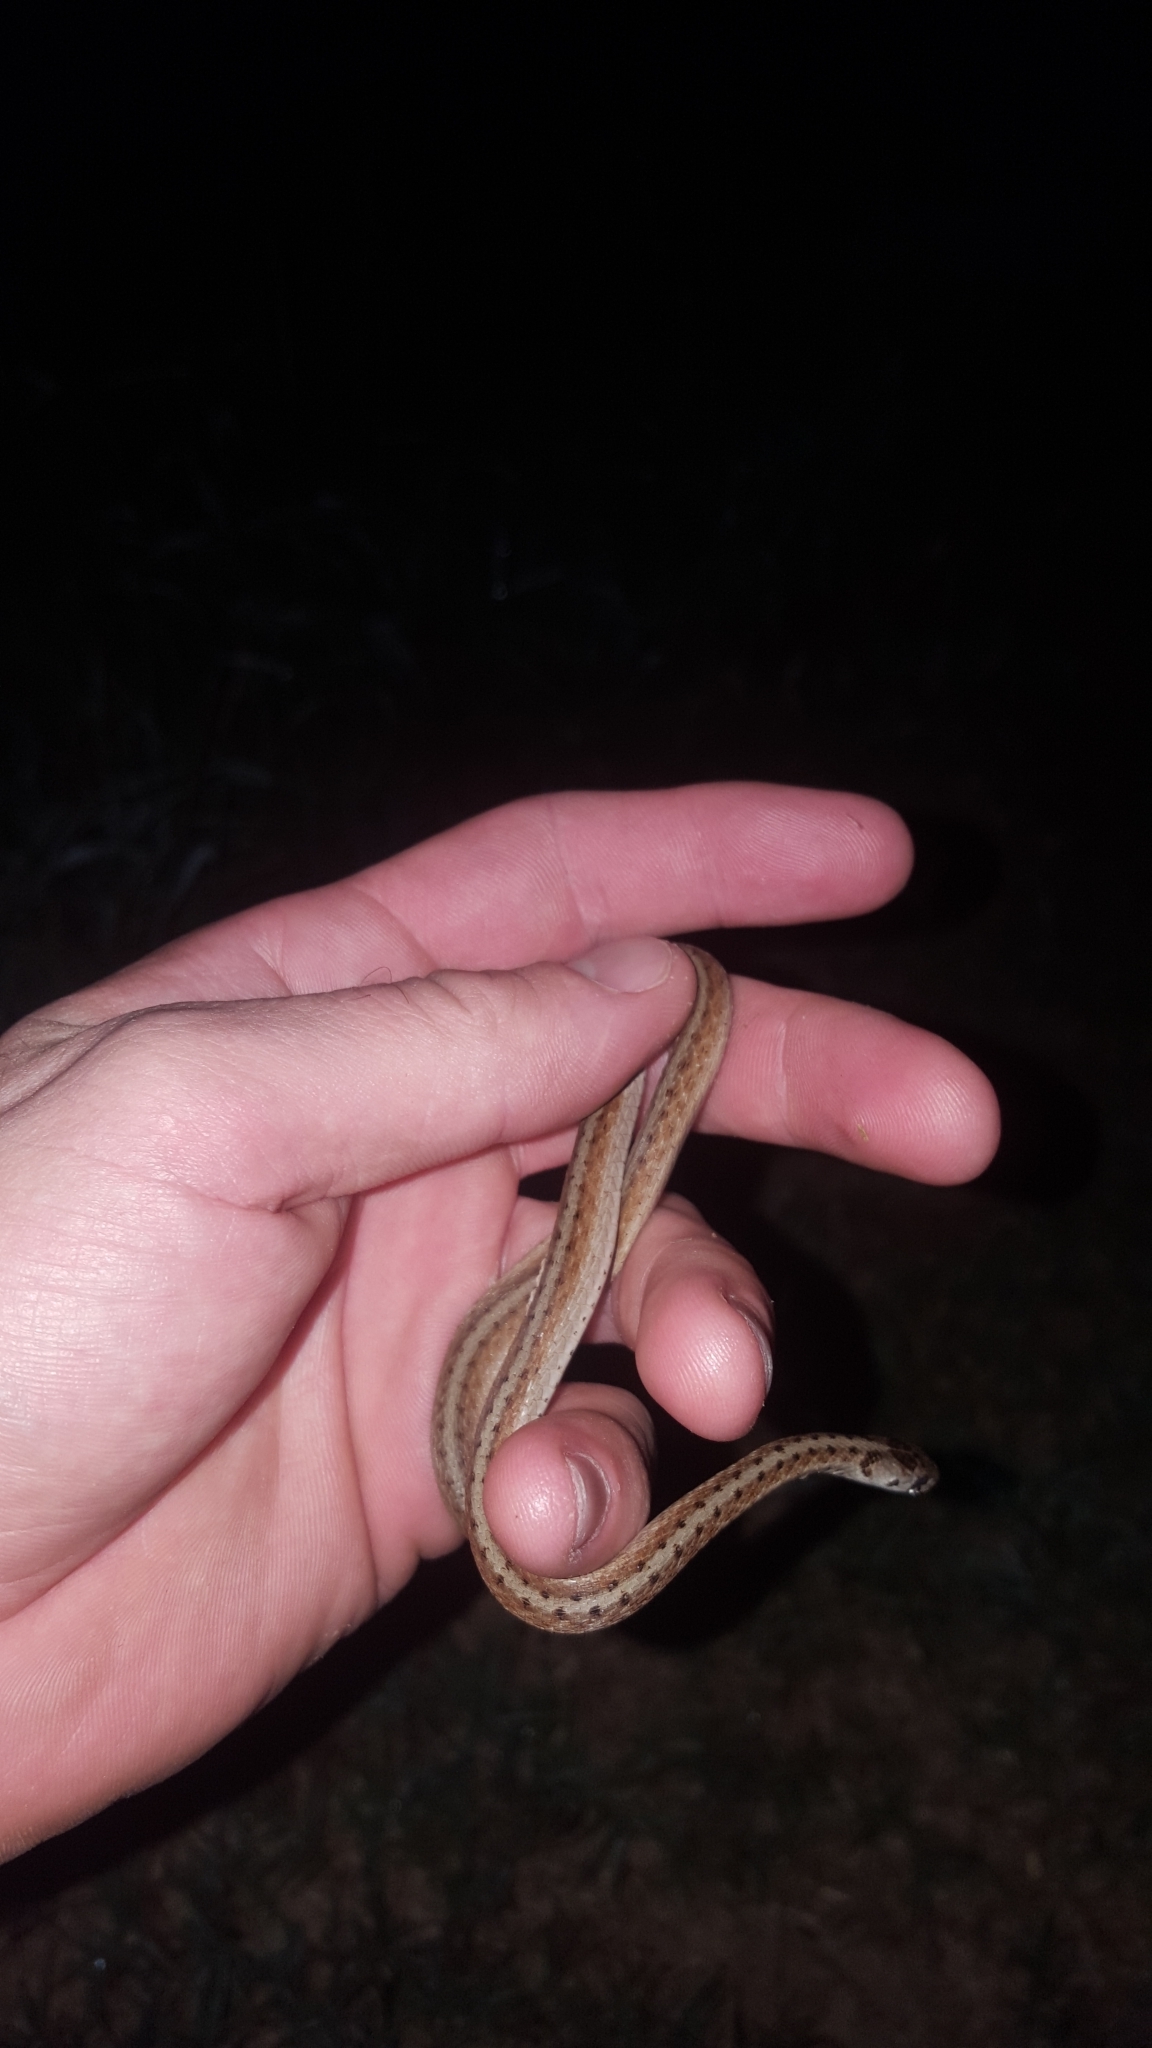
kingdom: Animalia
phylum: Chordata
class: Squamata
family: Colubridae
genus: Storeria
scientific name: Storeria dekayi
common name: (dekay’s) brown snake
